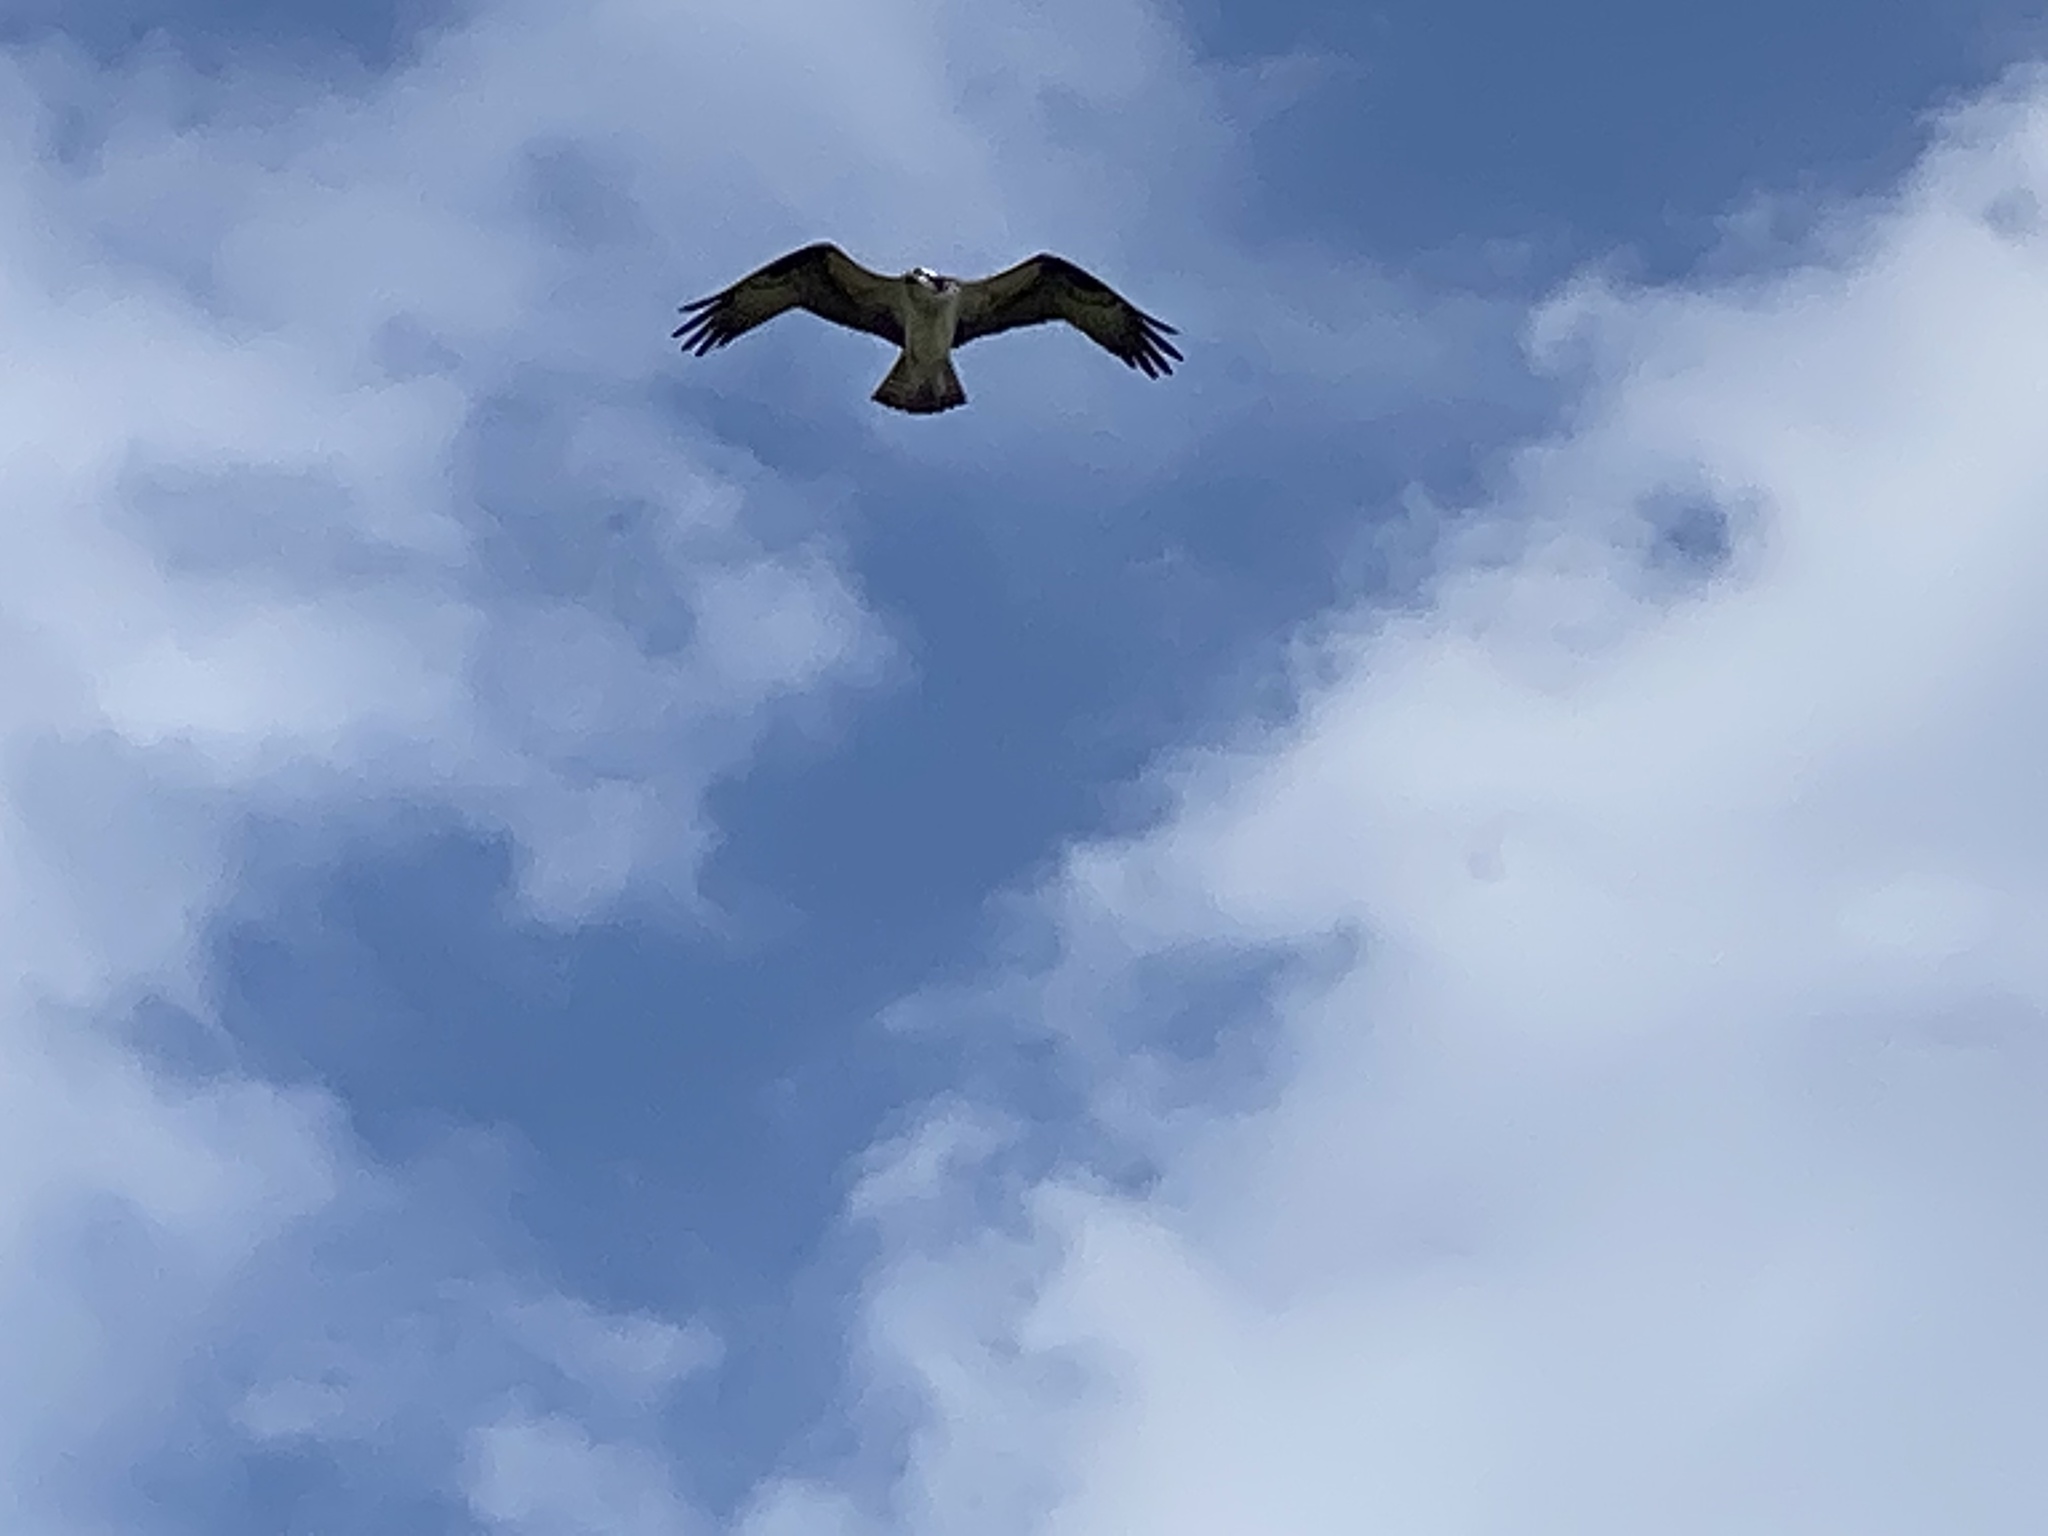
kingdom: Animalia
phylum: Chordata
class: Aves
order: Accipitriformes
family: Pandionidae
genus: Pandion
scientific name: Pandion haliaetus
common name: Osprey
